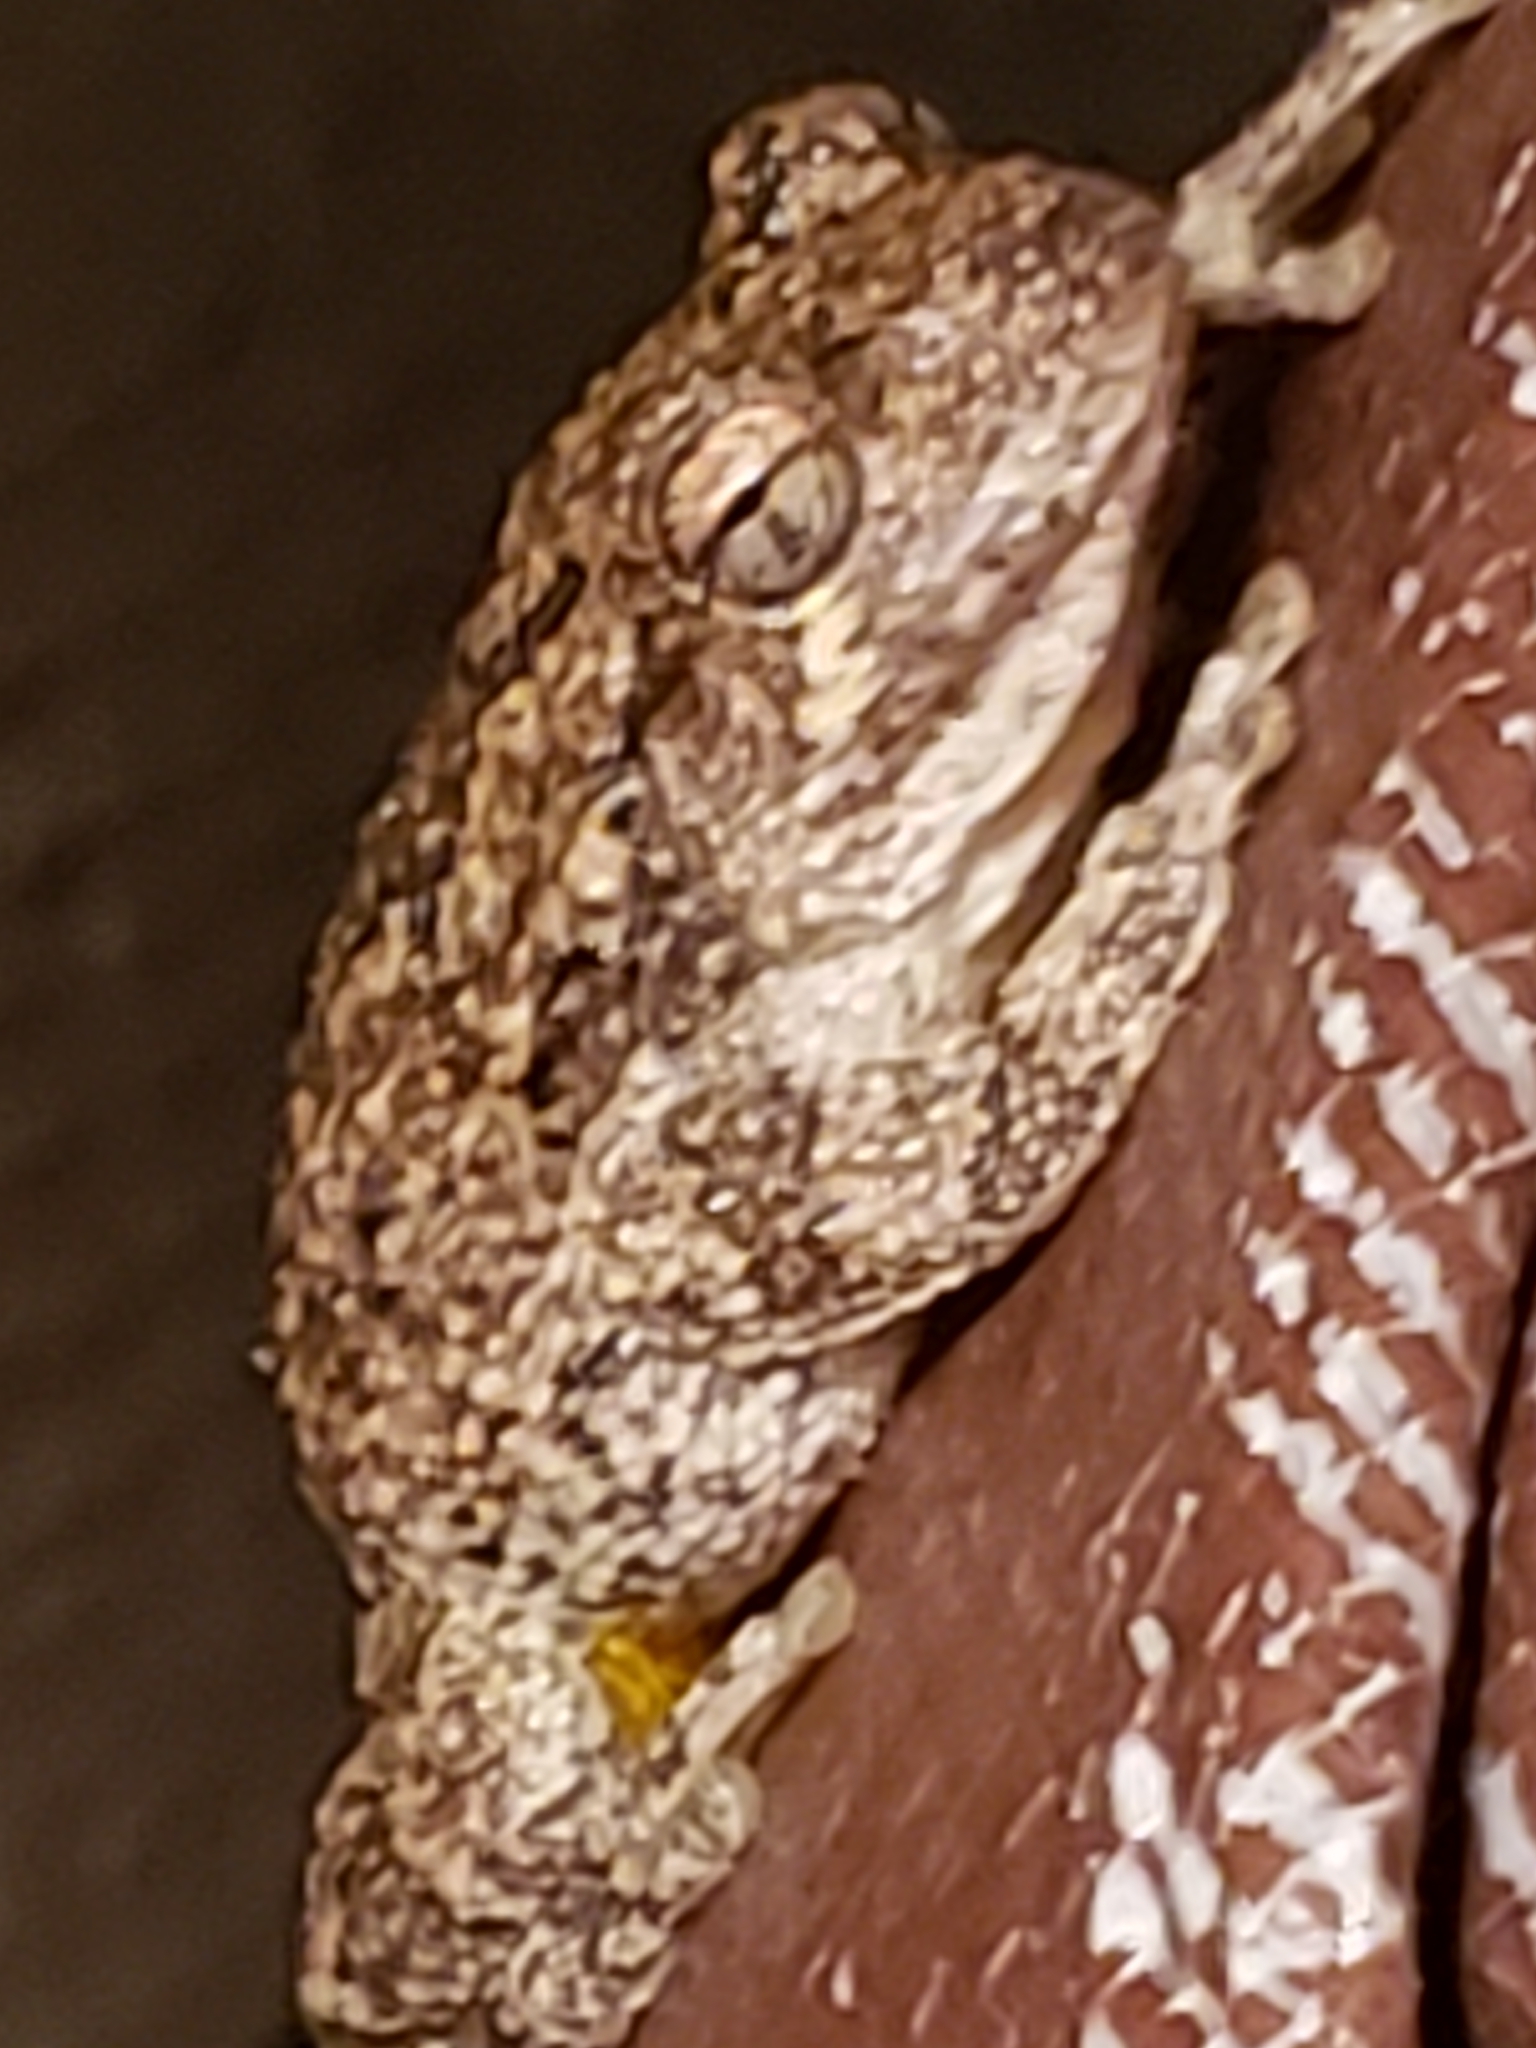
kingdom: Animalia
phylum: Chordata
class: Amphibia
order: Anura
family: Hylidae
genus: Hyla
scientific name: Hyla
